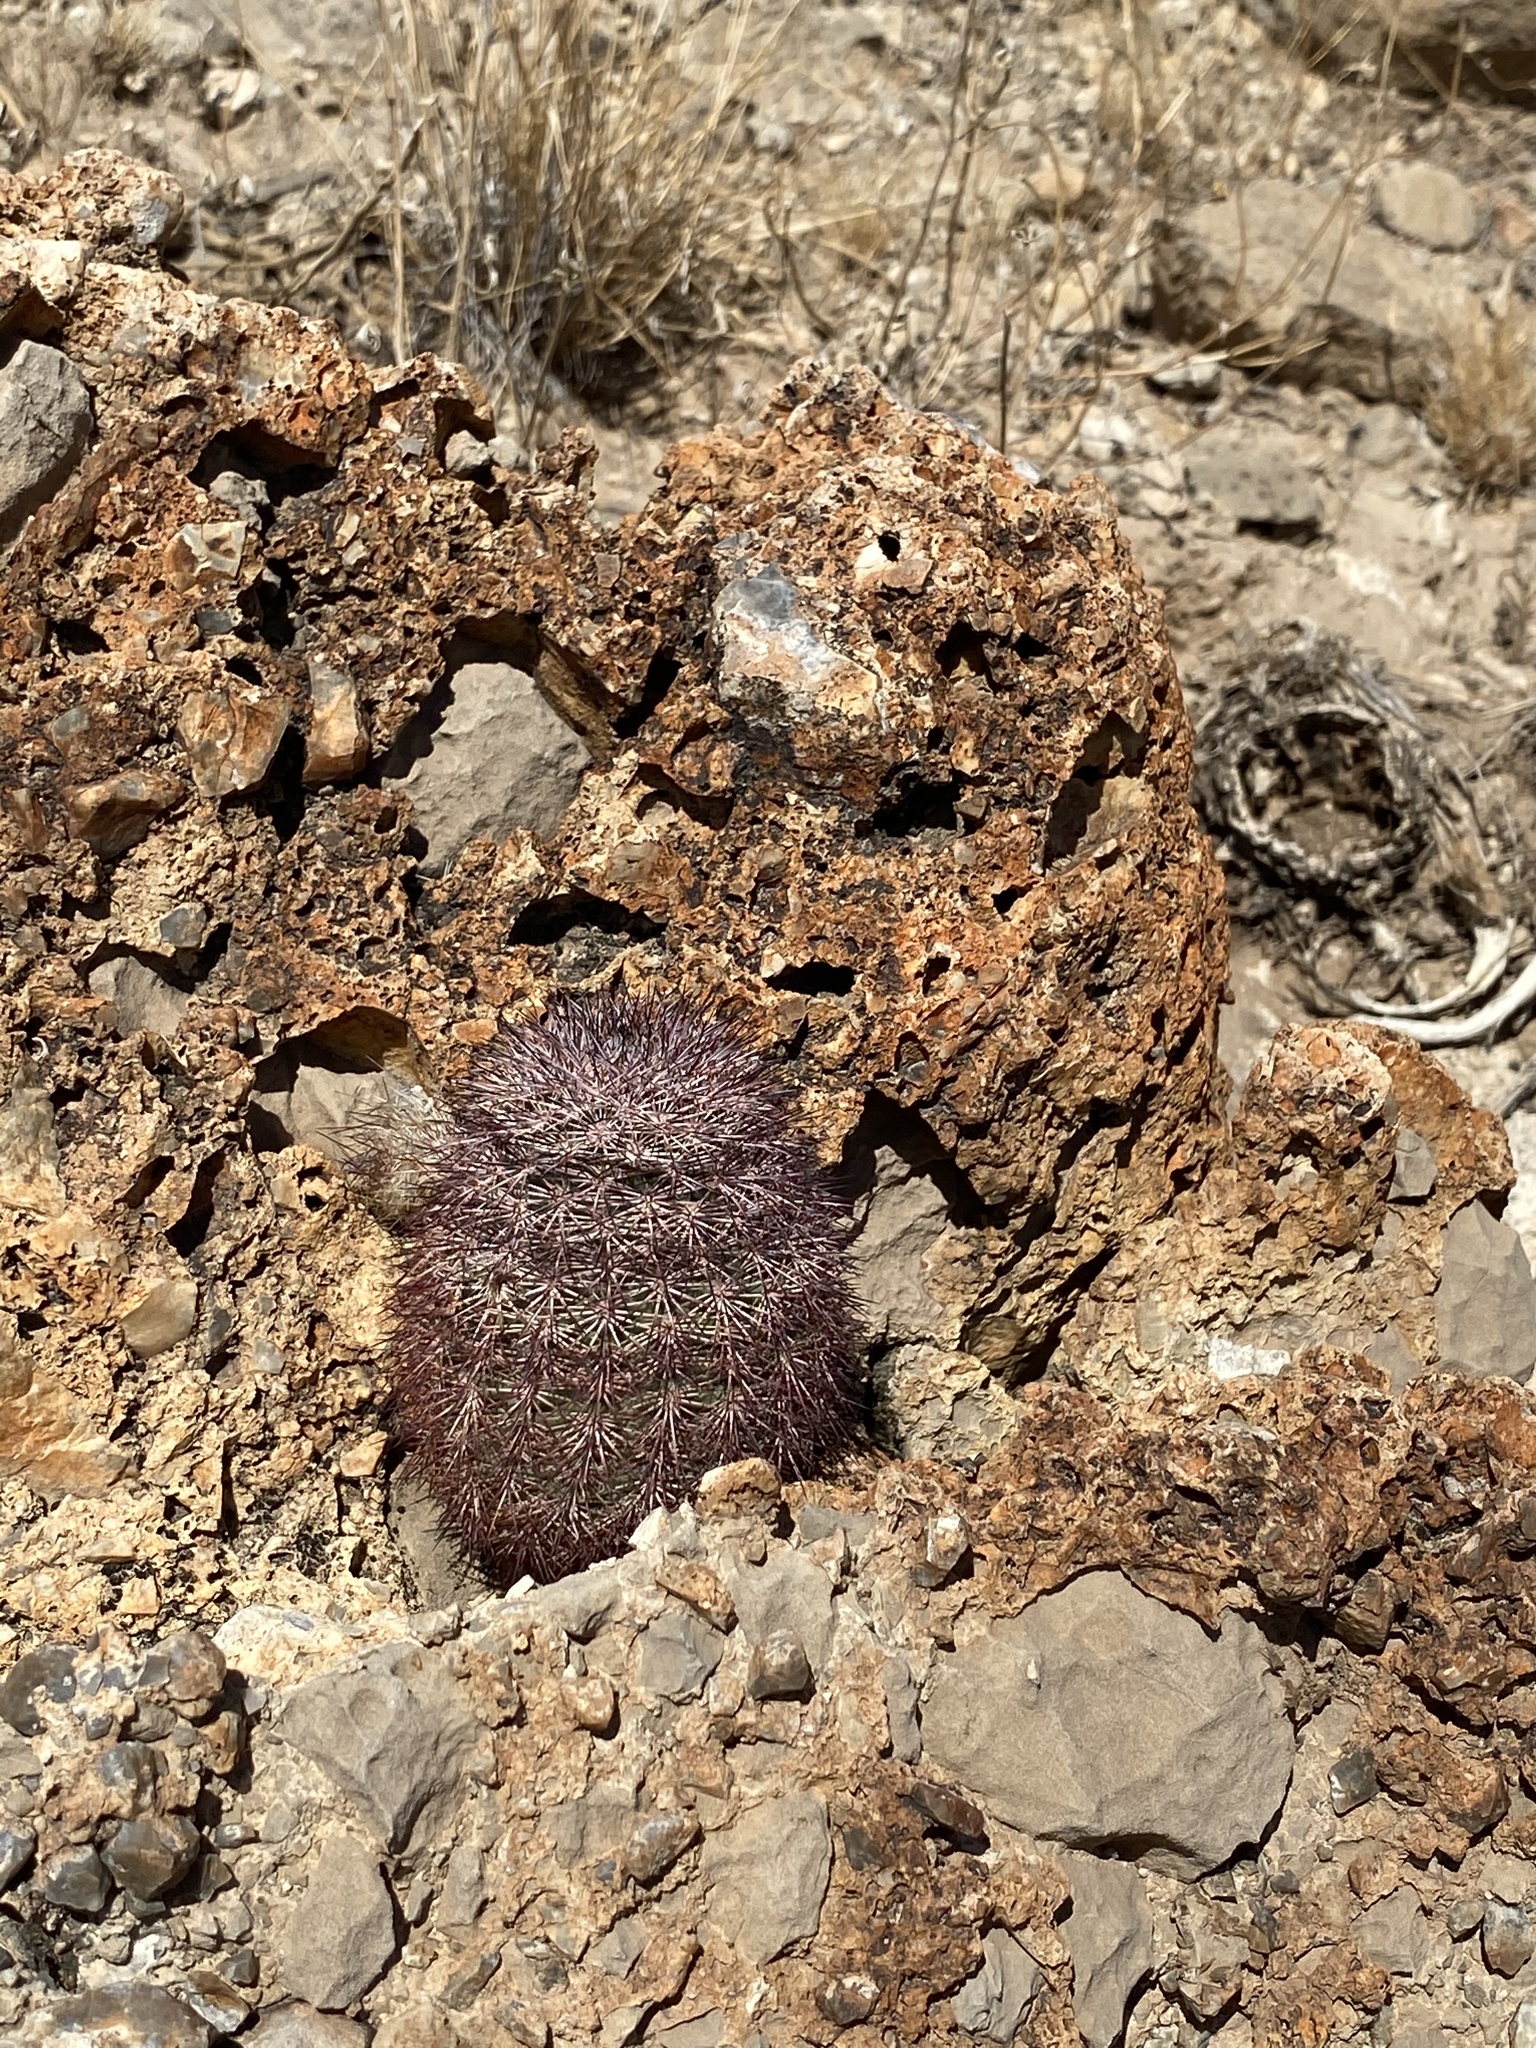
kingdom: Plantae
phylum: Tracheophyta
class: Magnoliopsida
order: Caryophyllales
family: Cactaceae
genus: Echinocereus
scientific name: Echinocereus dasyacanthus
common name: Spiny hedgehog cactus
